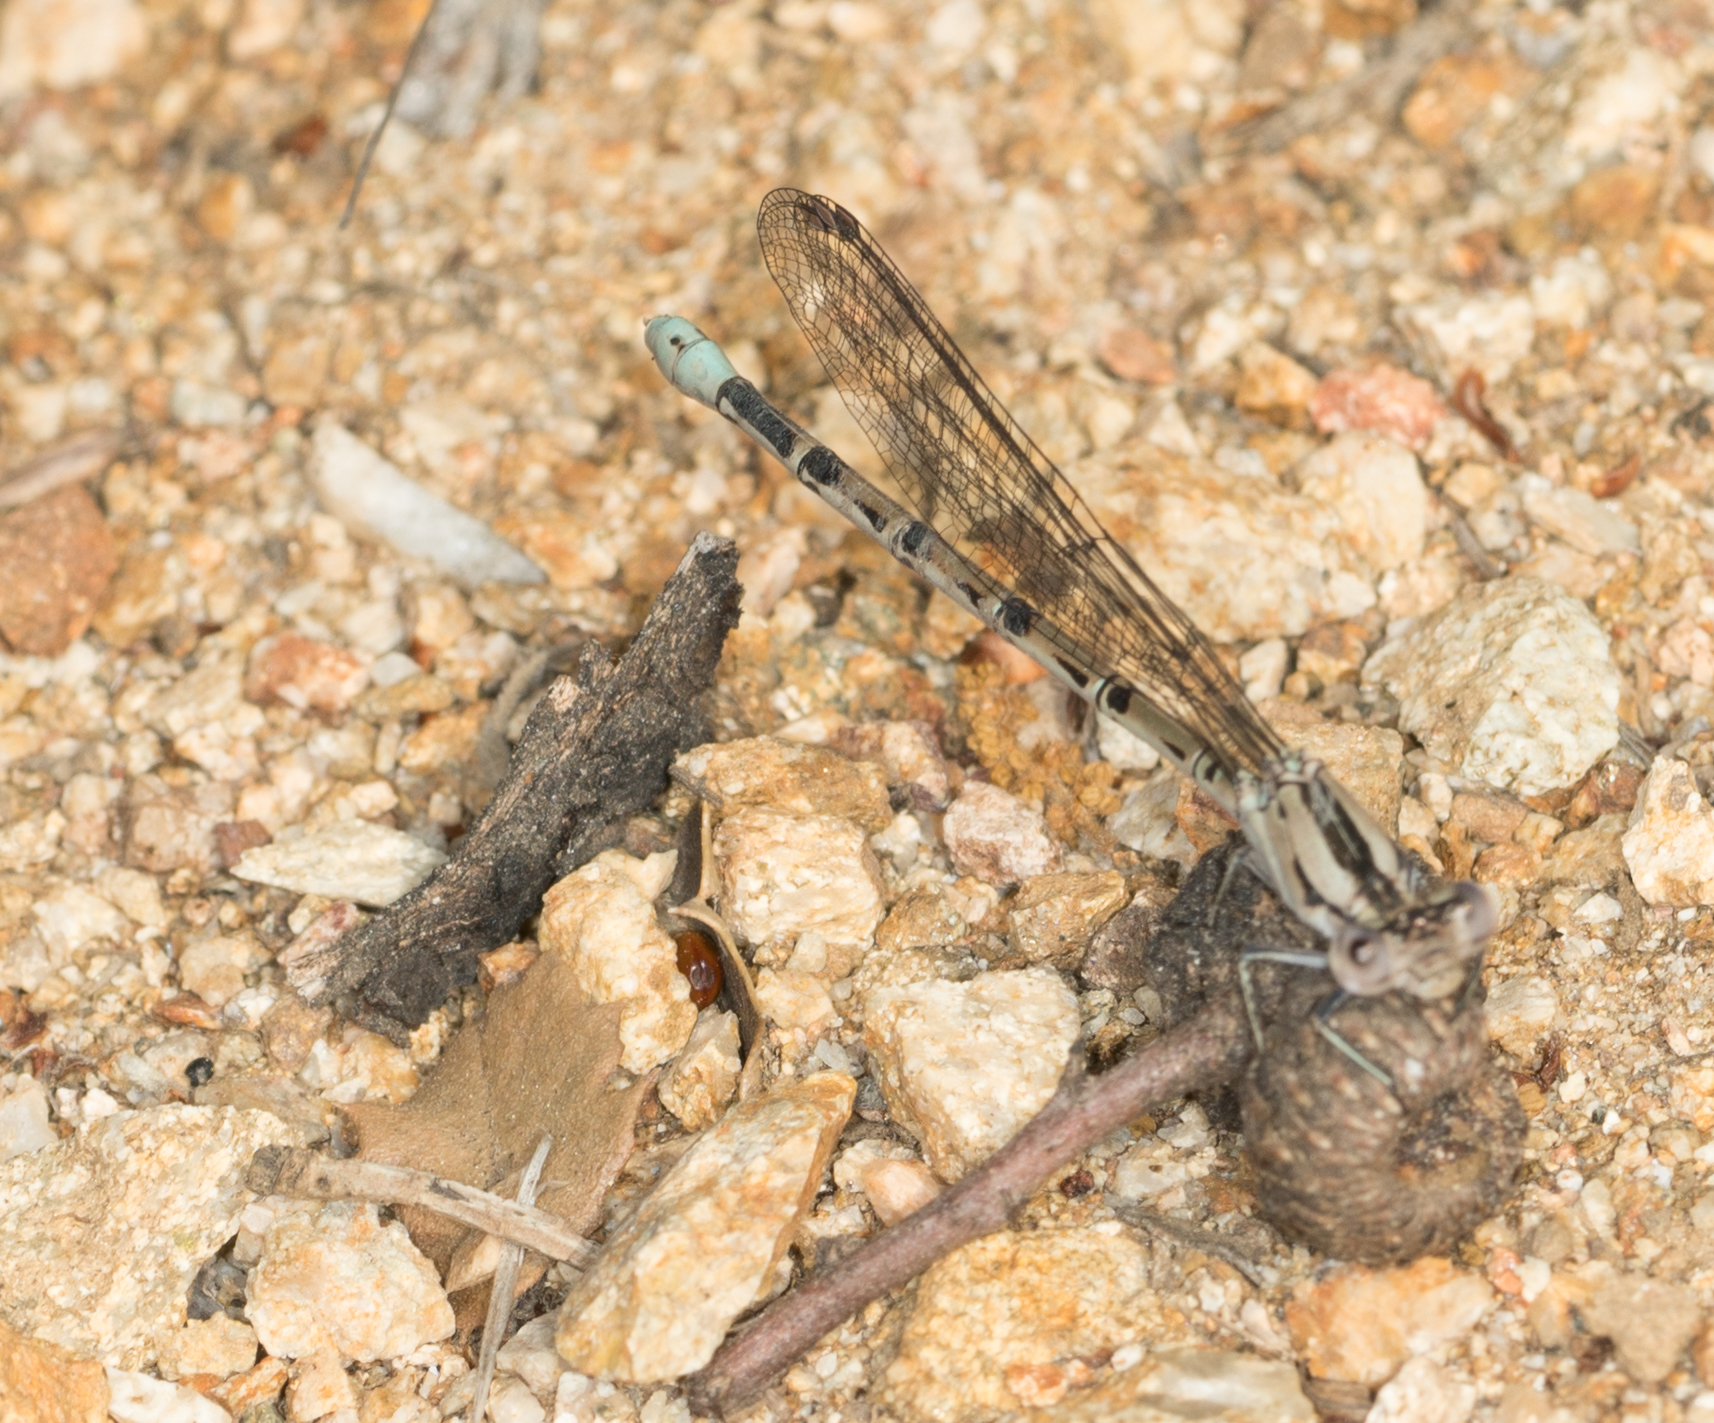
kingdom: Animalia
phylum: Arthropoda
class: Insecta
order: Odonata
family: Coenagrionidae
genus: Argia
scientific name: Argia vivida
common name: Vivid dancer
